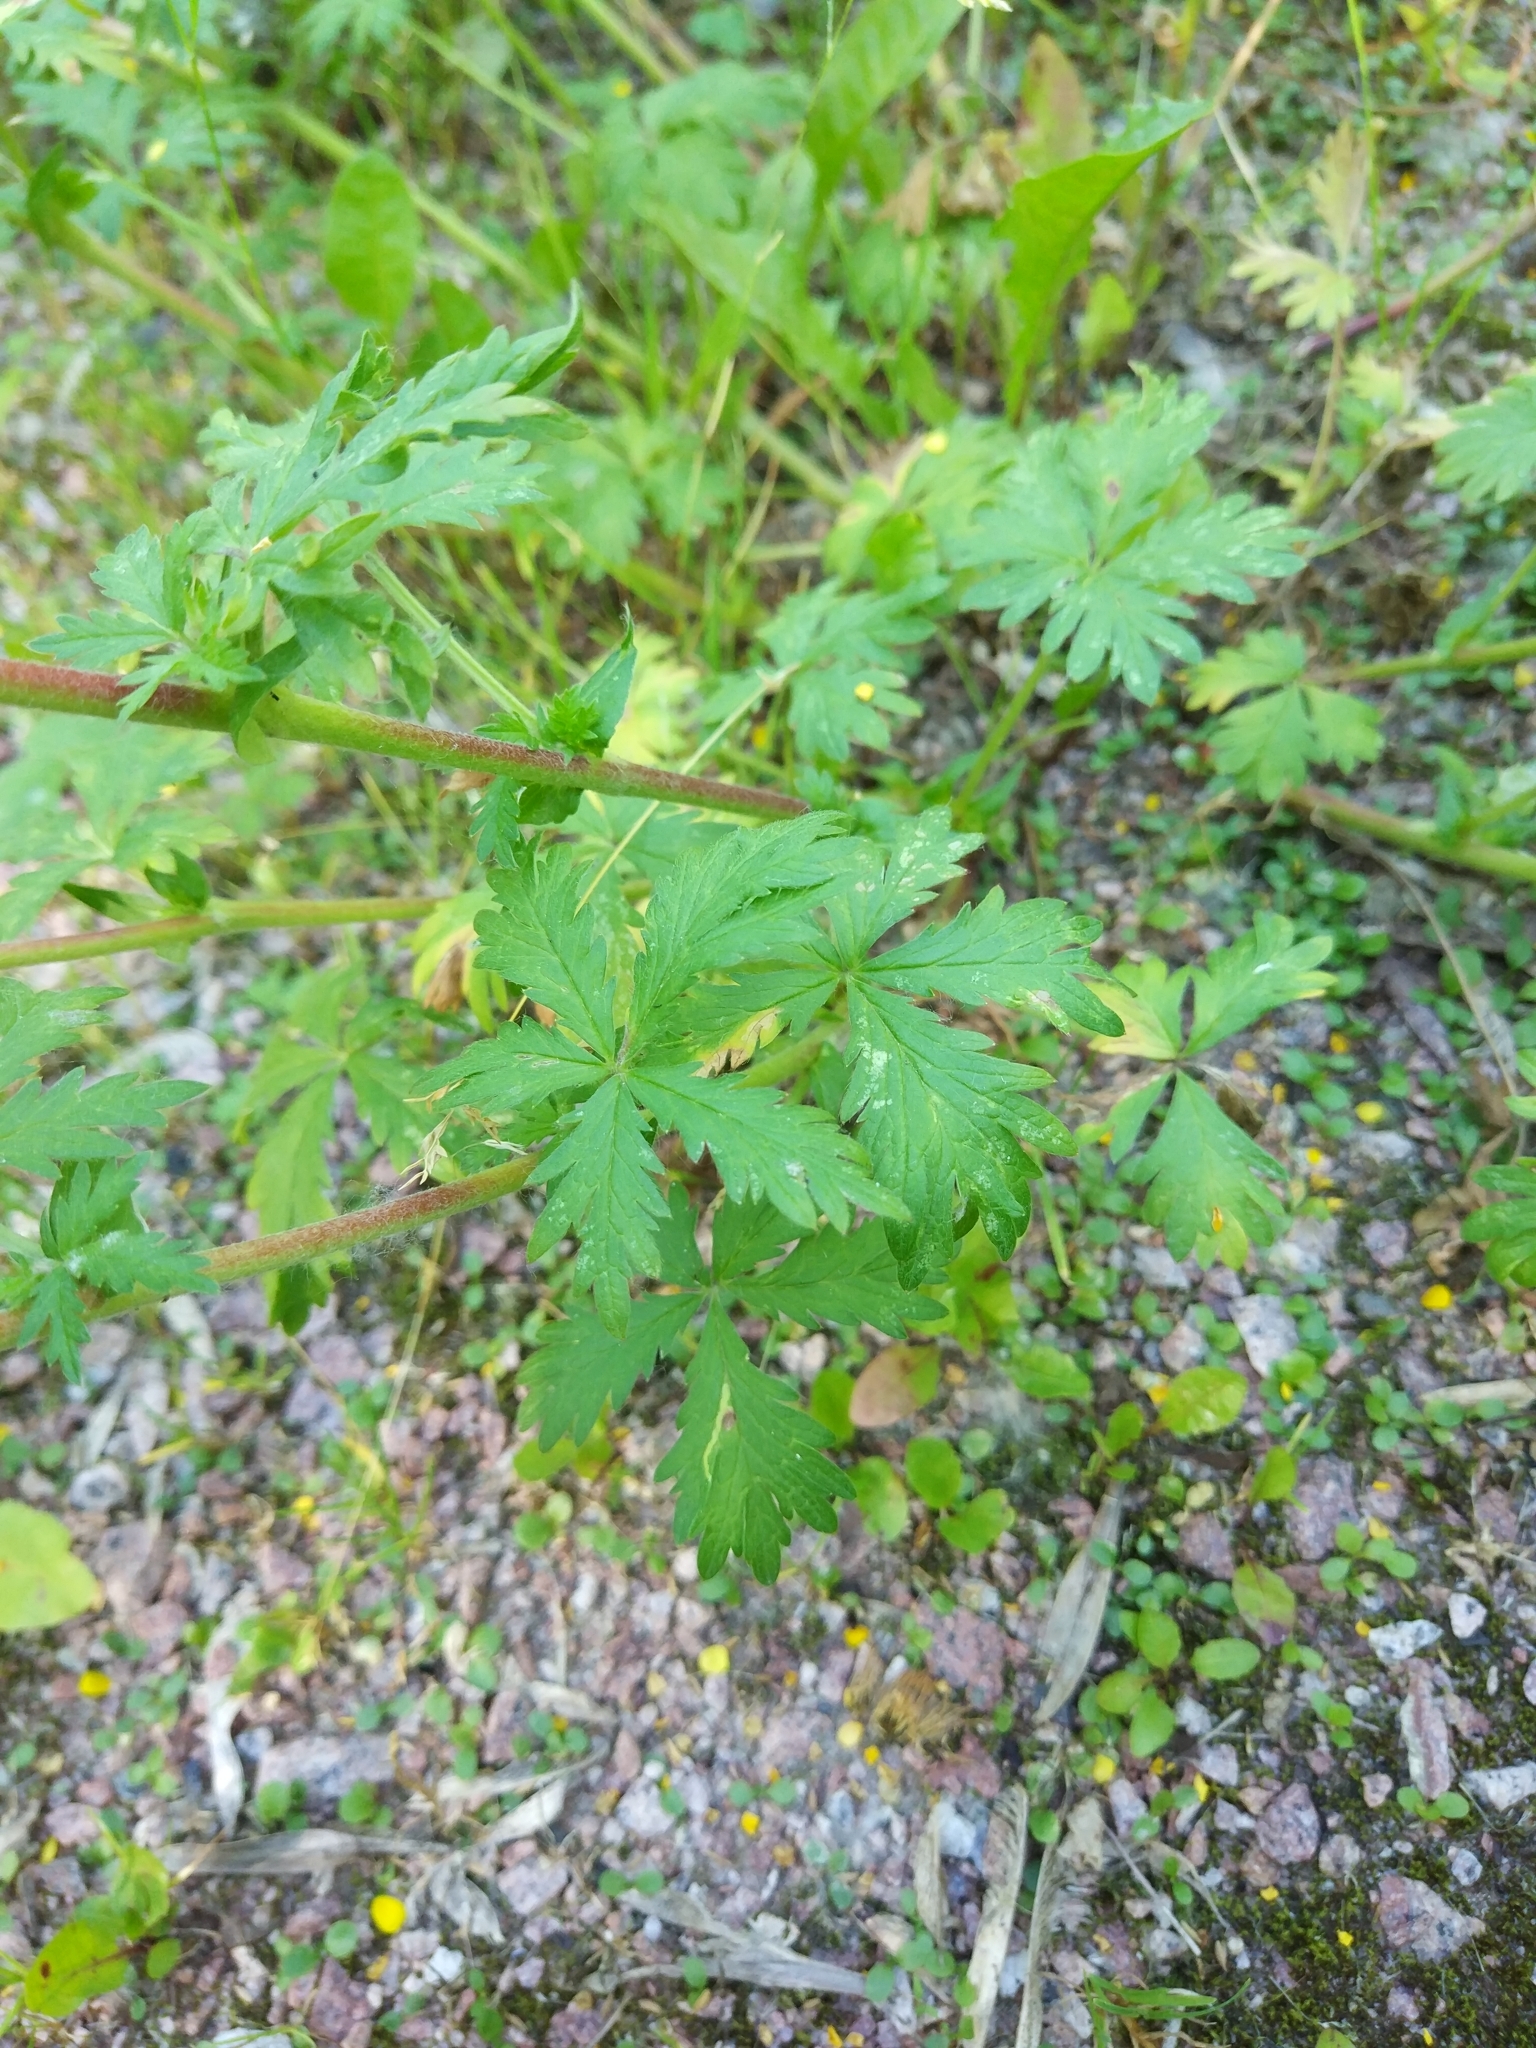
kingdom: Plantae
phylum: Tracheophyta
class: Magnoliopsida
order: Rosales
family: Rosaceae
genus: Potentilla
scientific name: Potentilla intermedia
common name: Downy cinquefoil
